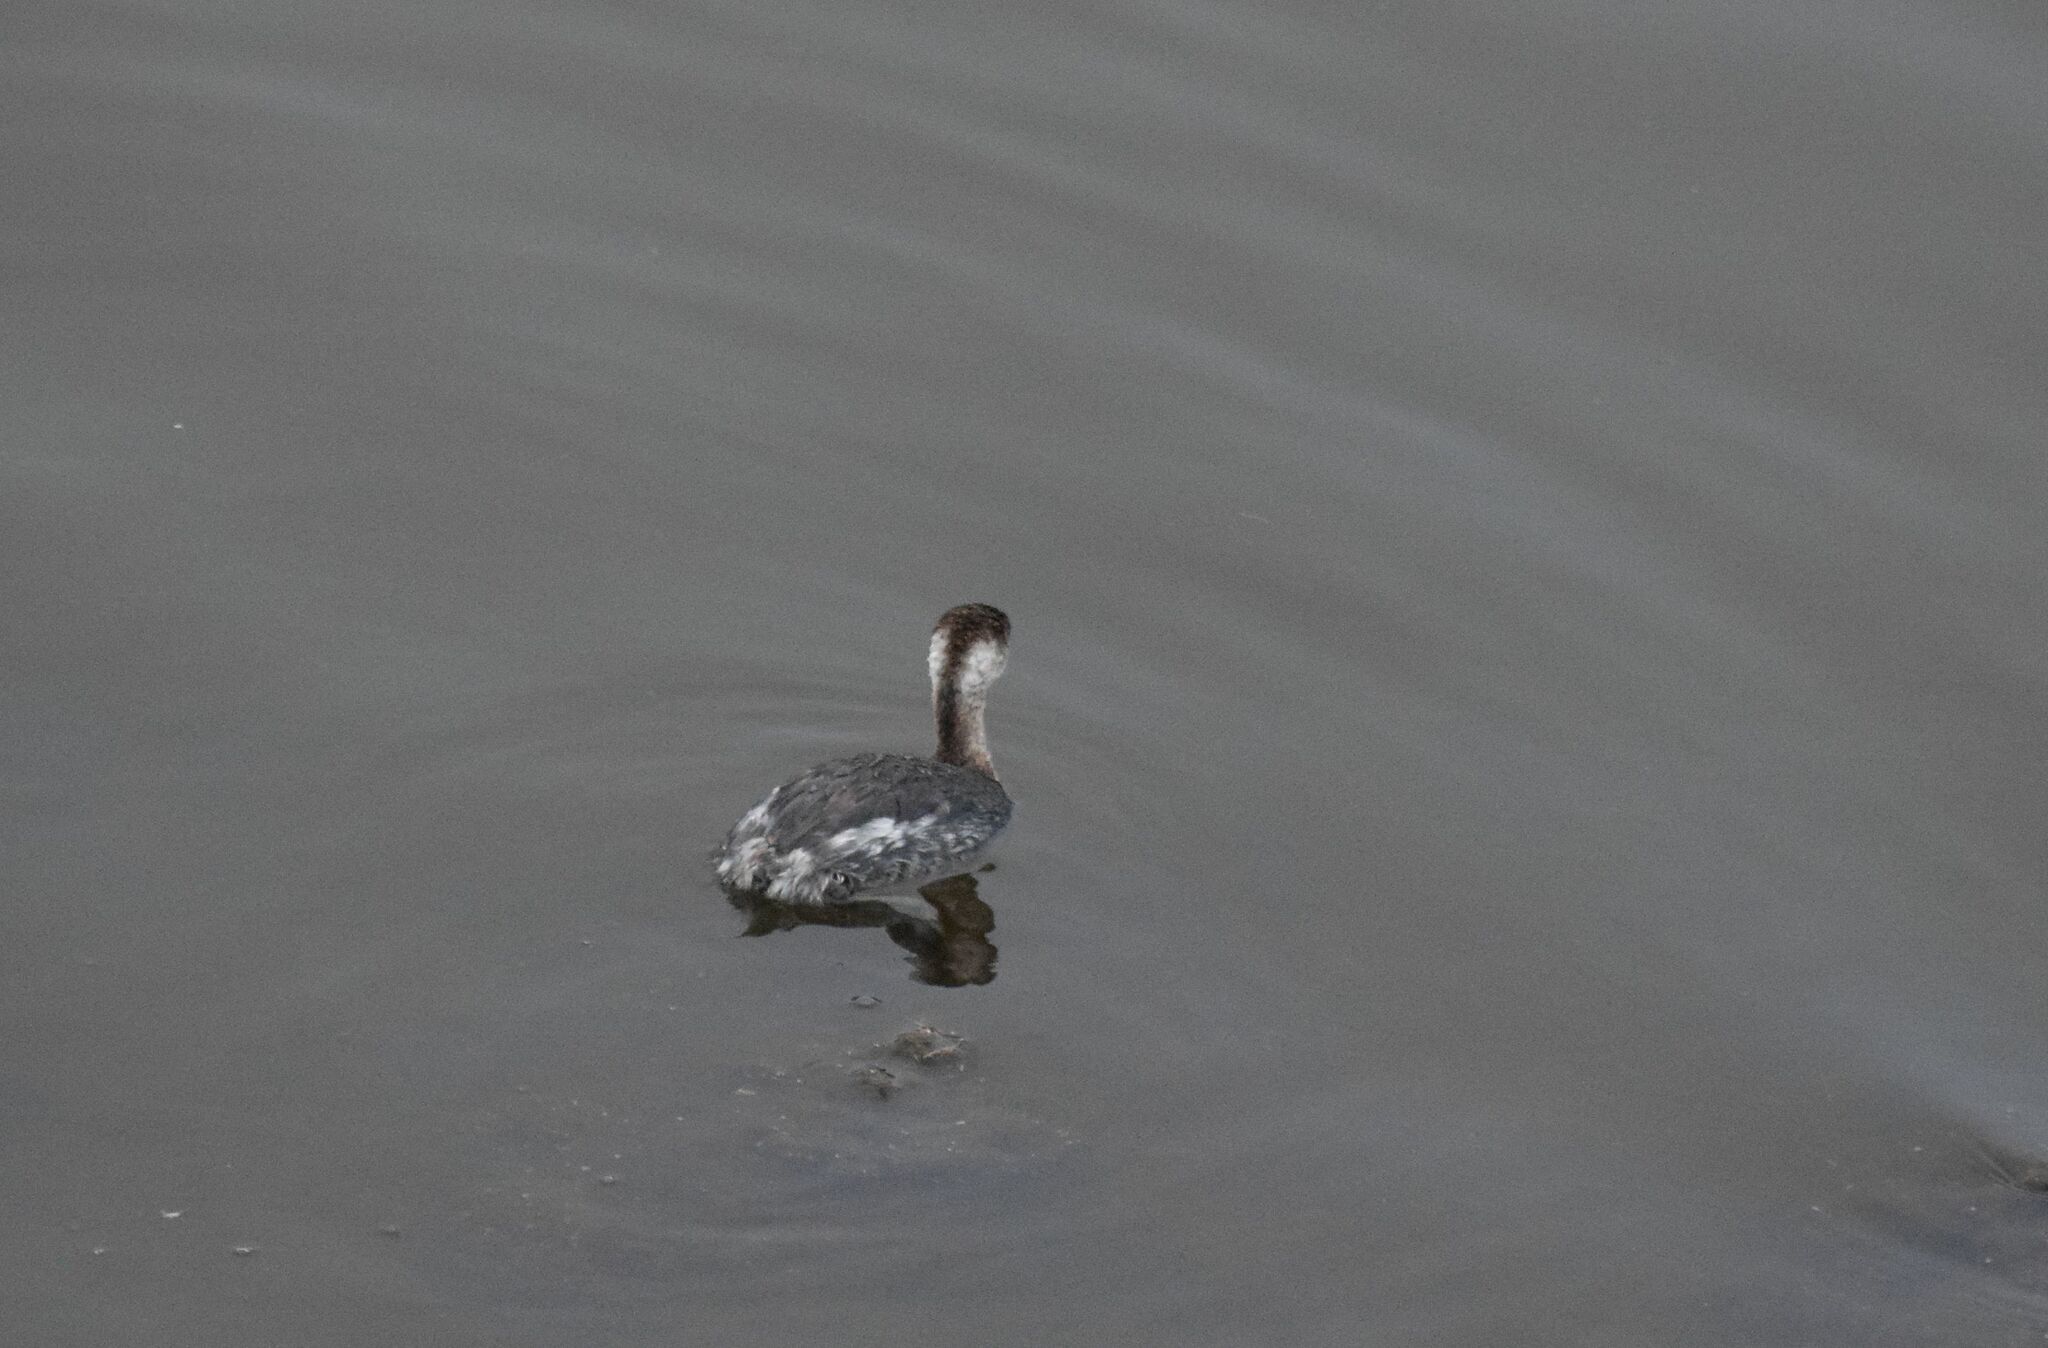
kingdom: Animalia
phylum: Chordata
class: Aves
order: Podicipediformes
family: Podicipedidae
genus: Podiceps
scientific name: Podiceps nigricollis
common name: Black-necked grebe
